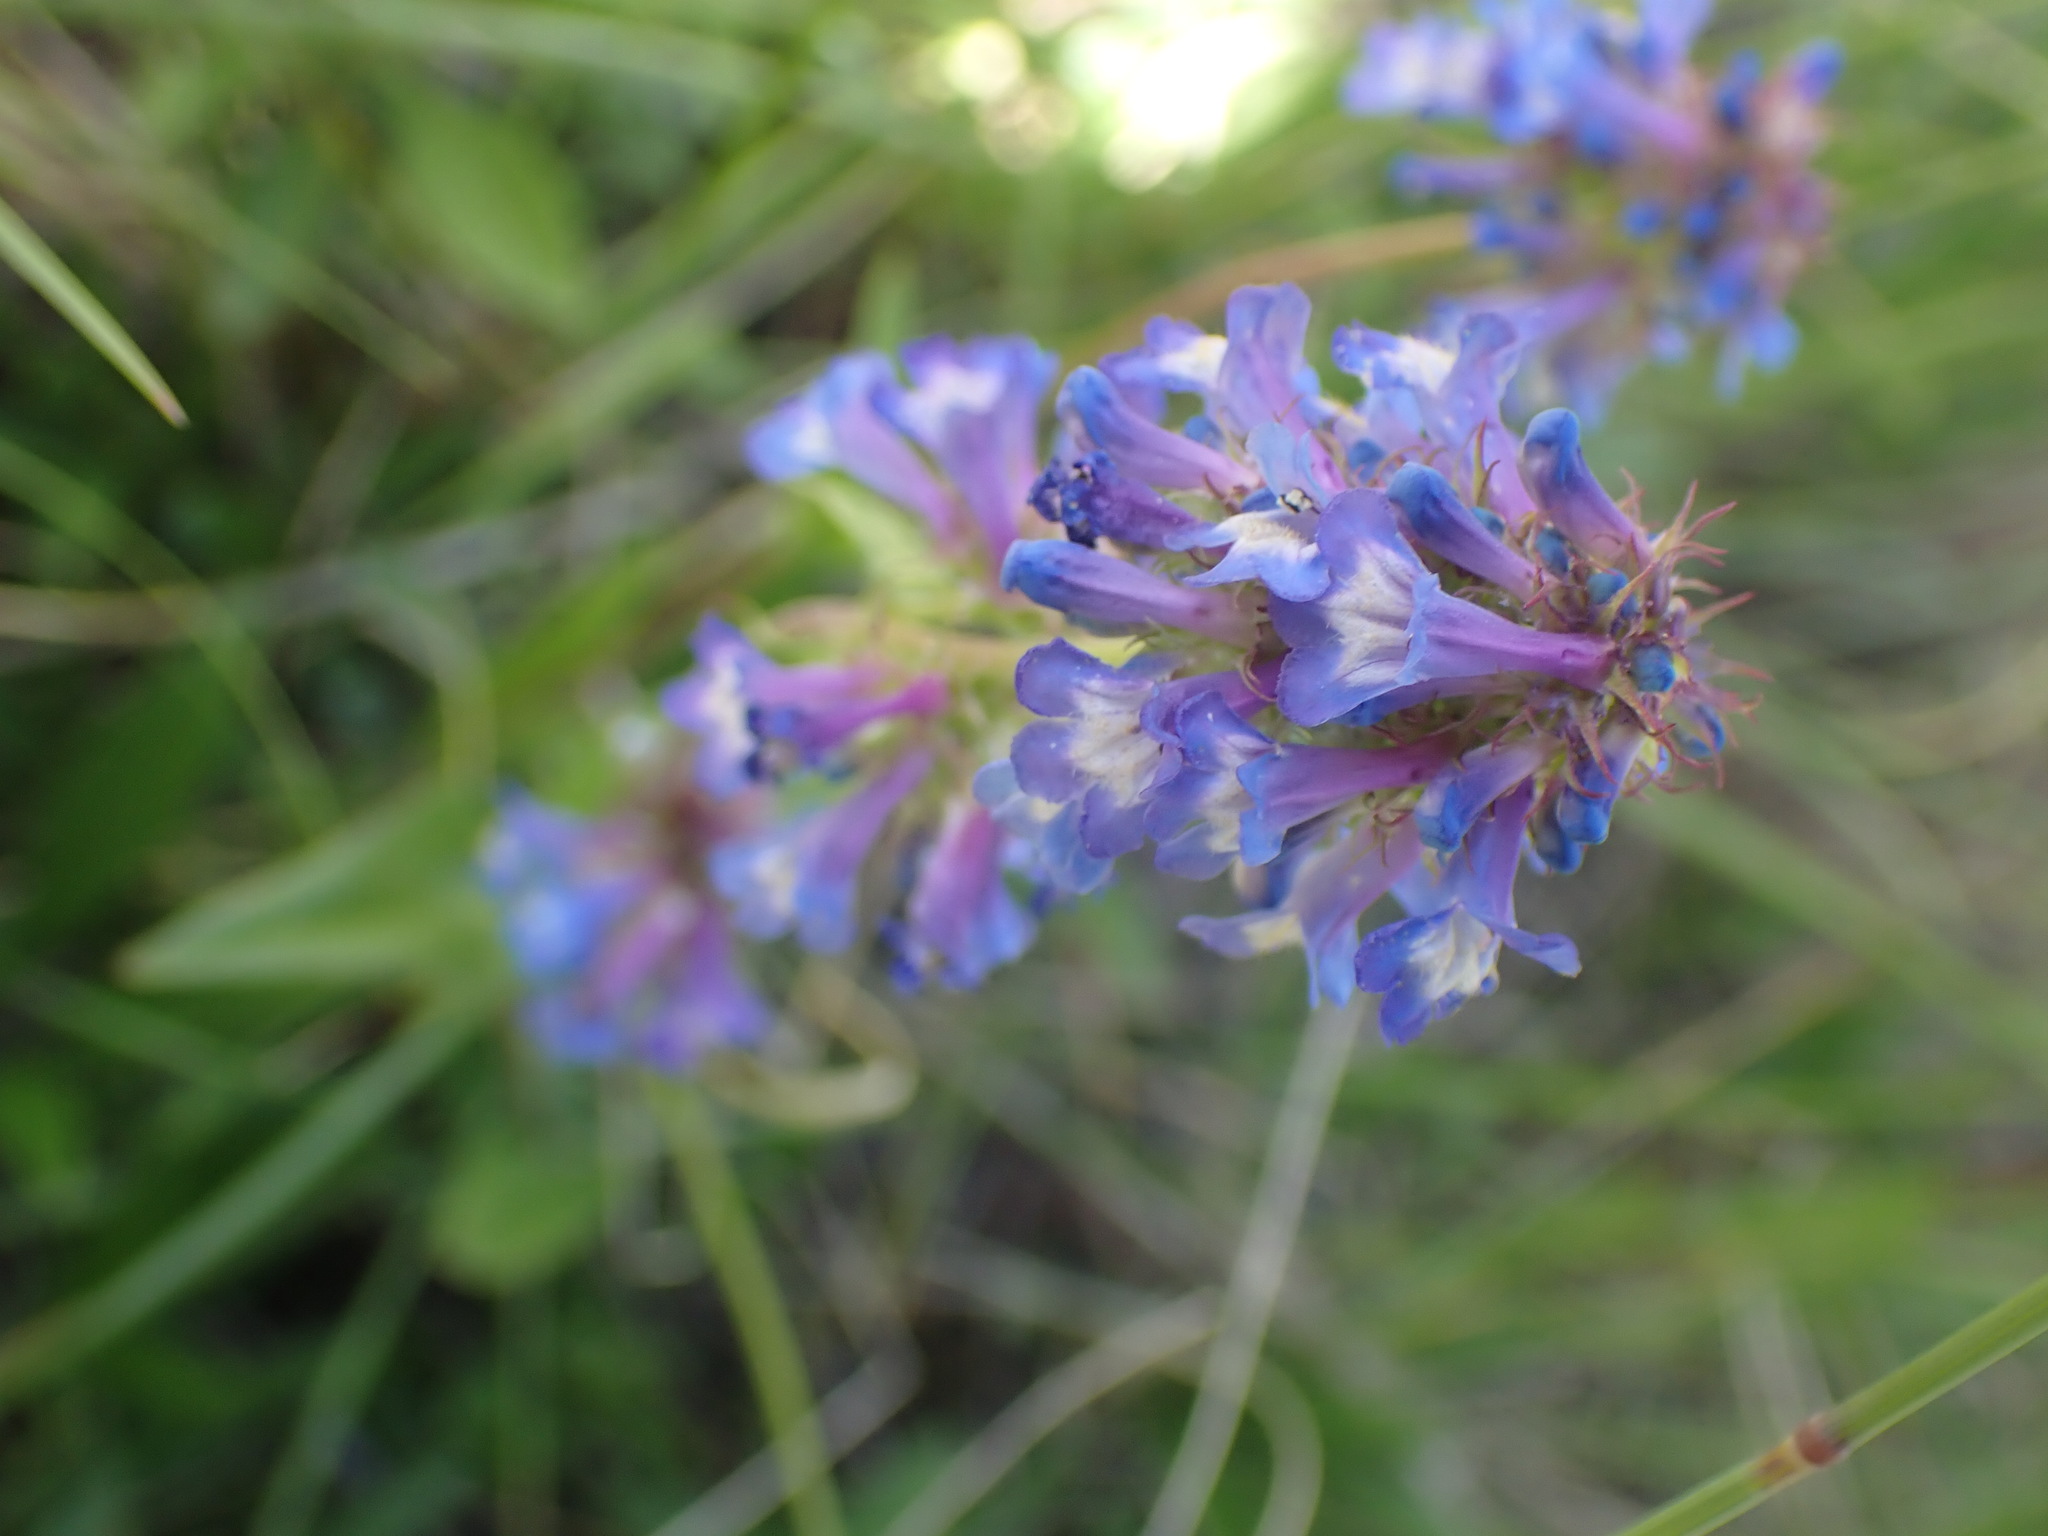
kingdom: Plantae
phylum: Tracheophyta
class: Magnoliopsida
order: Lamiales
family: Plantaginaceae
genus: Penstemon
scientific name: Penstemon procerus
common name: Small-flower penstemon
